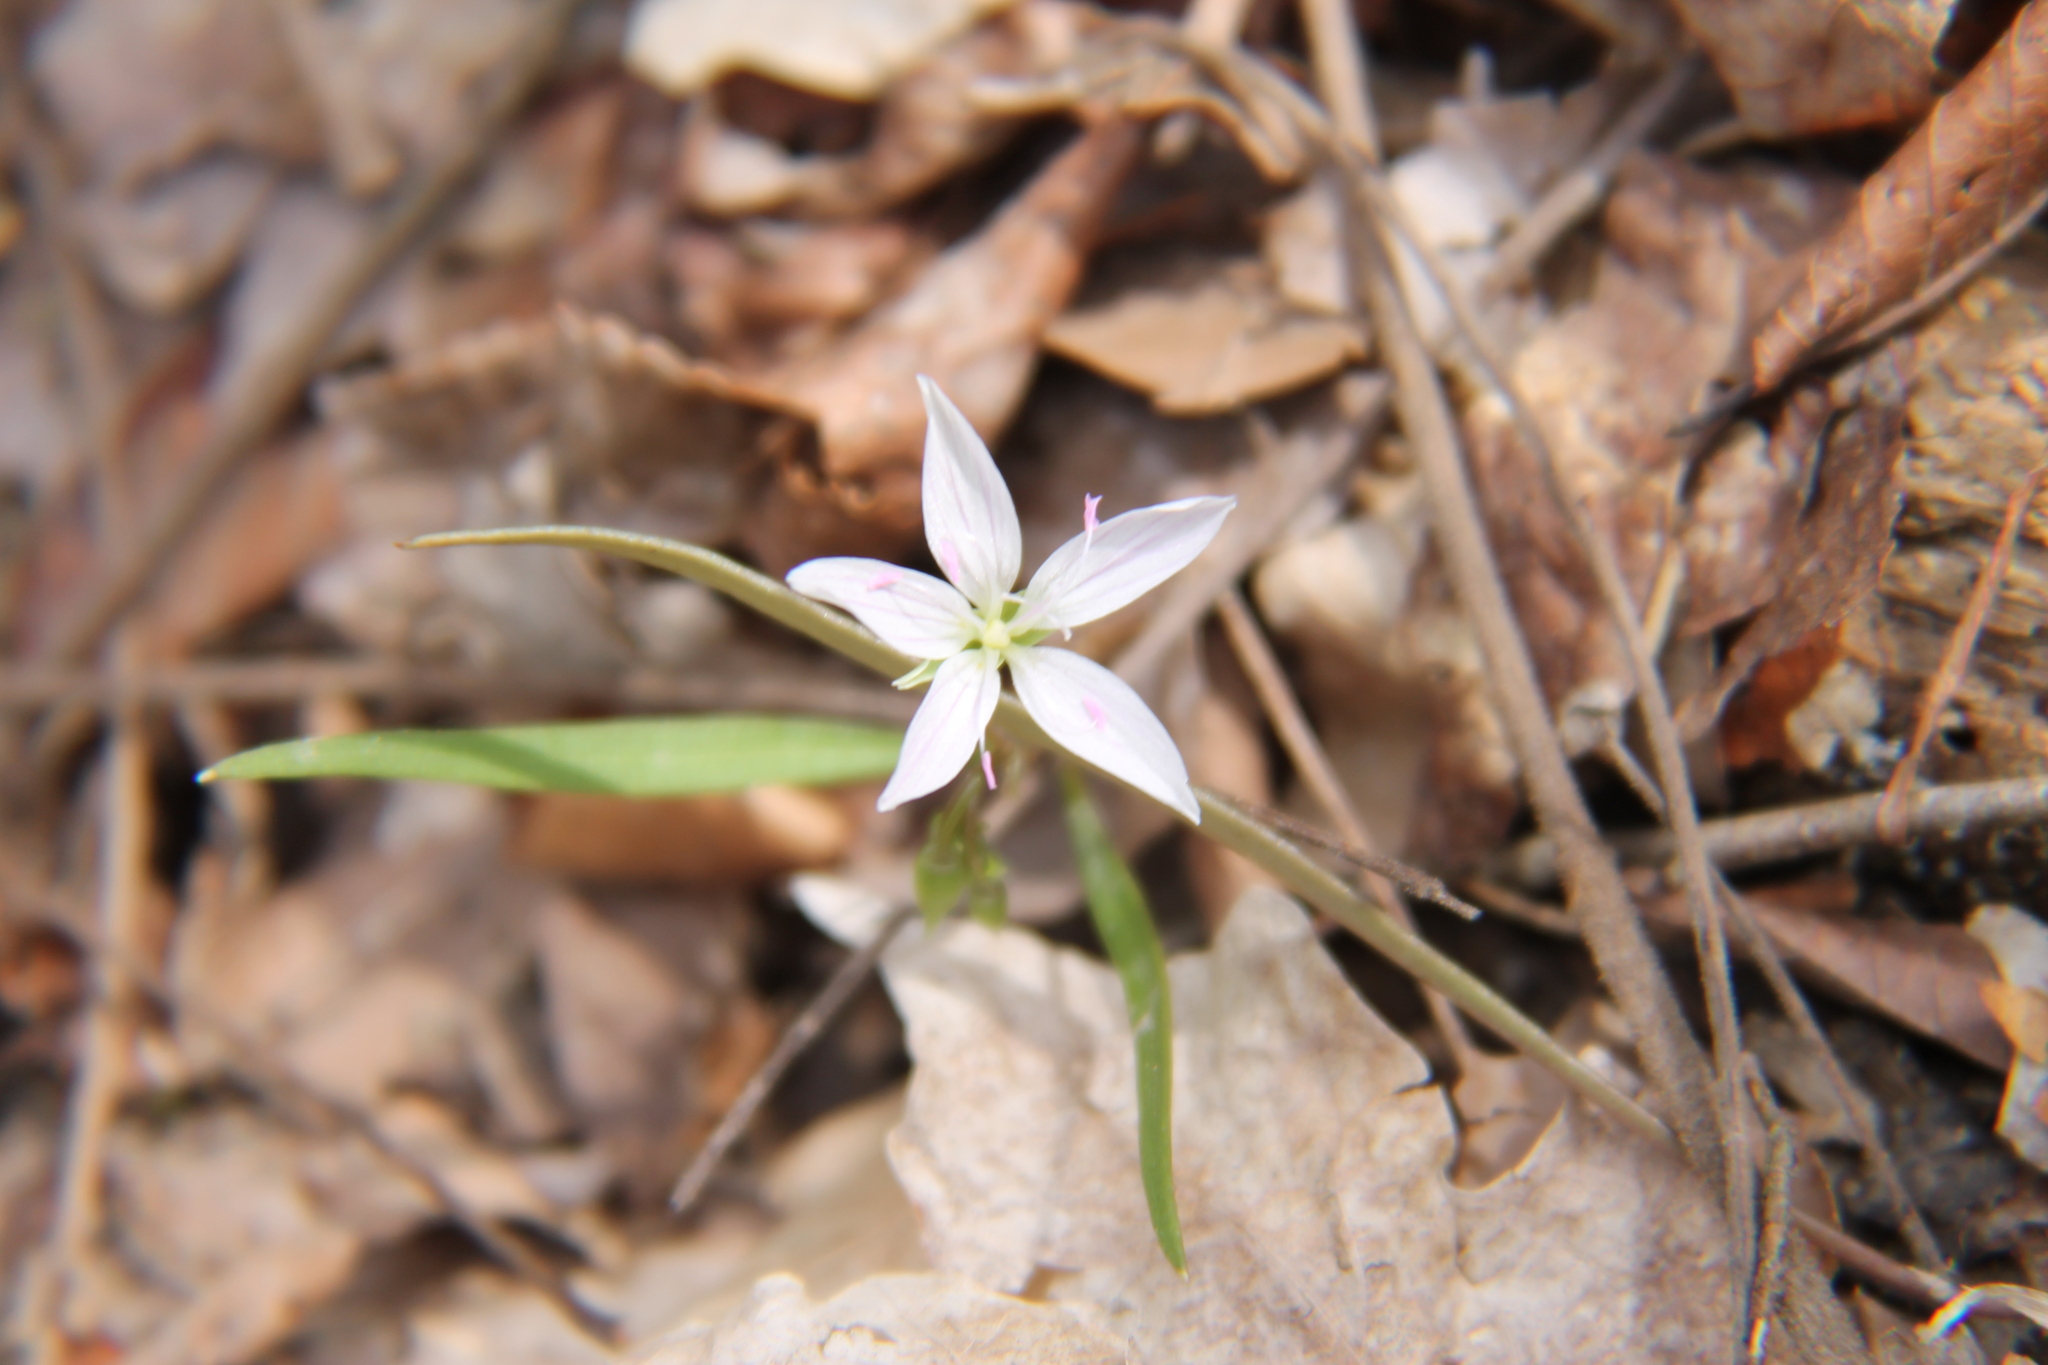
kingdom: Plantae
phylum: Tracheophyta
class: Magnoliopsida
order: Caryophyllales
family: Montiaceae
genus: Claytonia
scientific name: Claytonia virginica
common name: Virginia springbeauty
